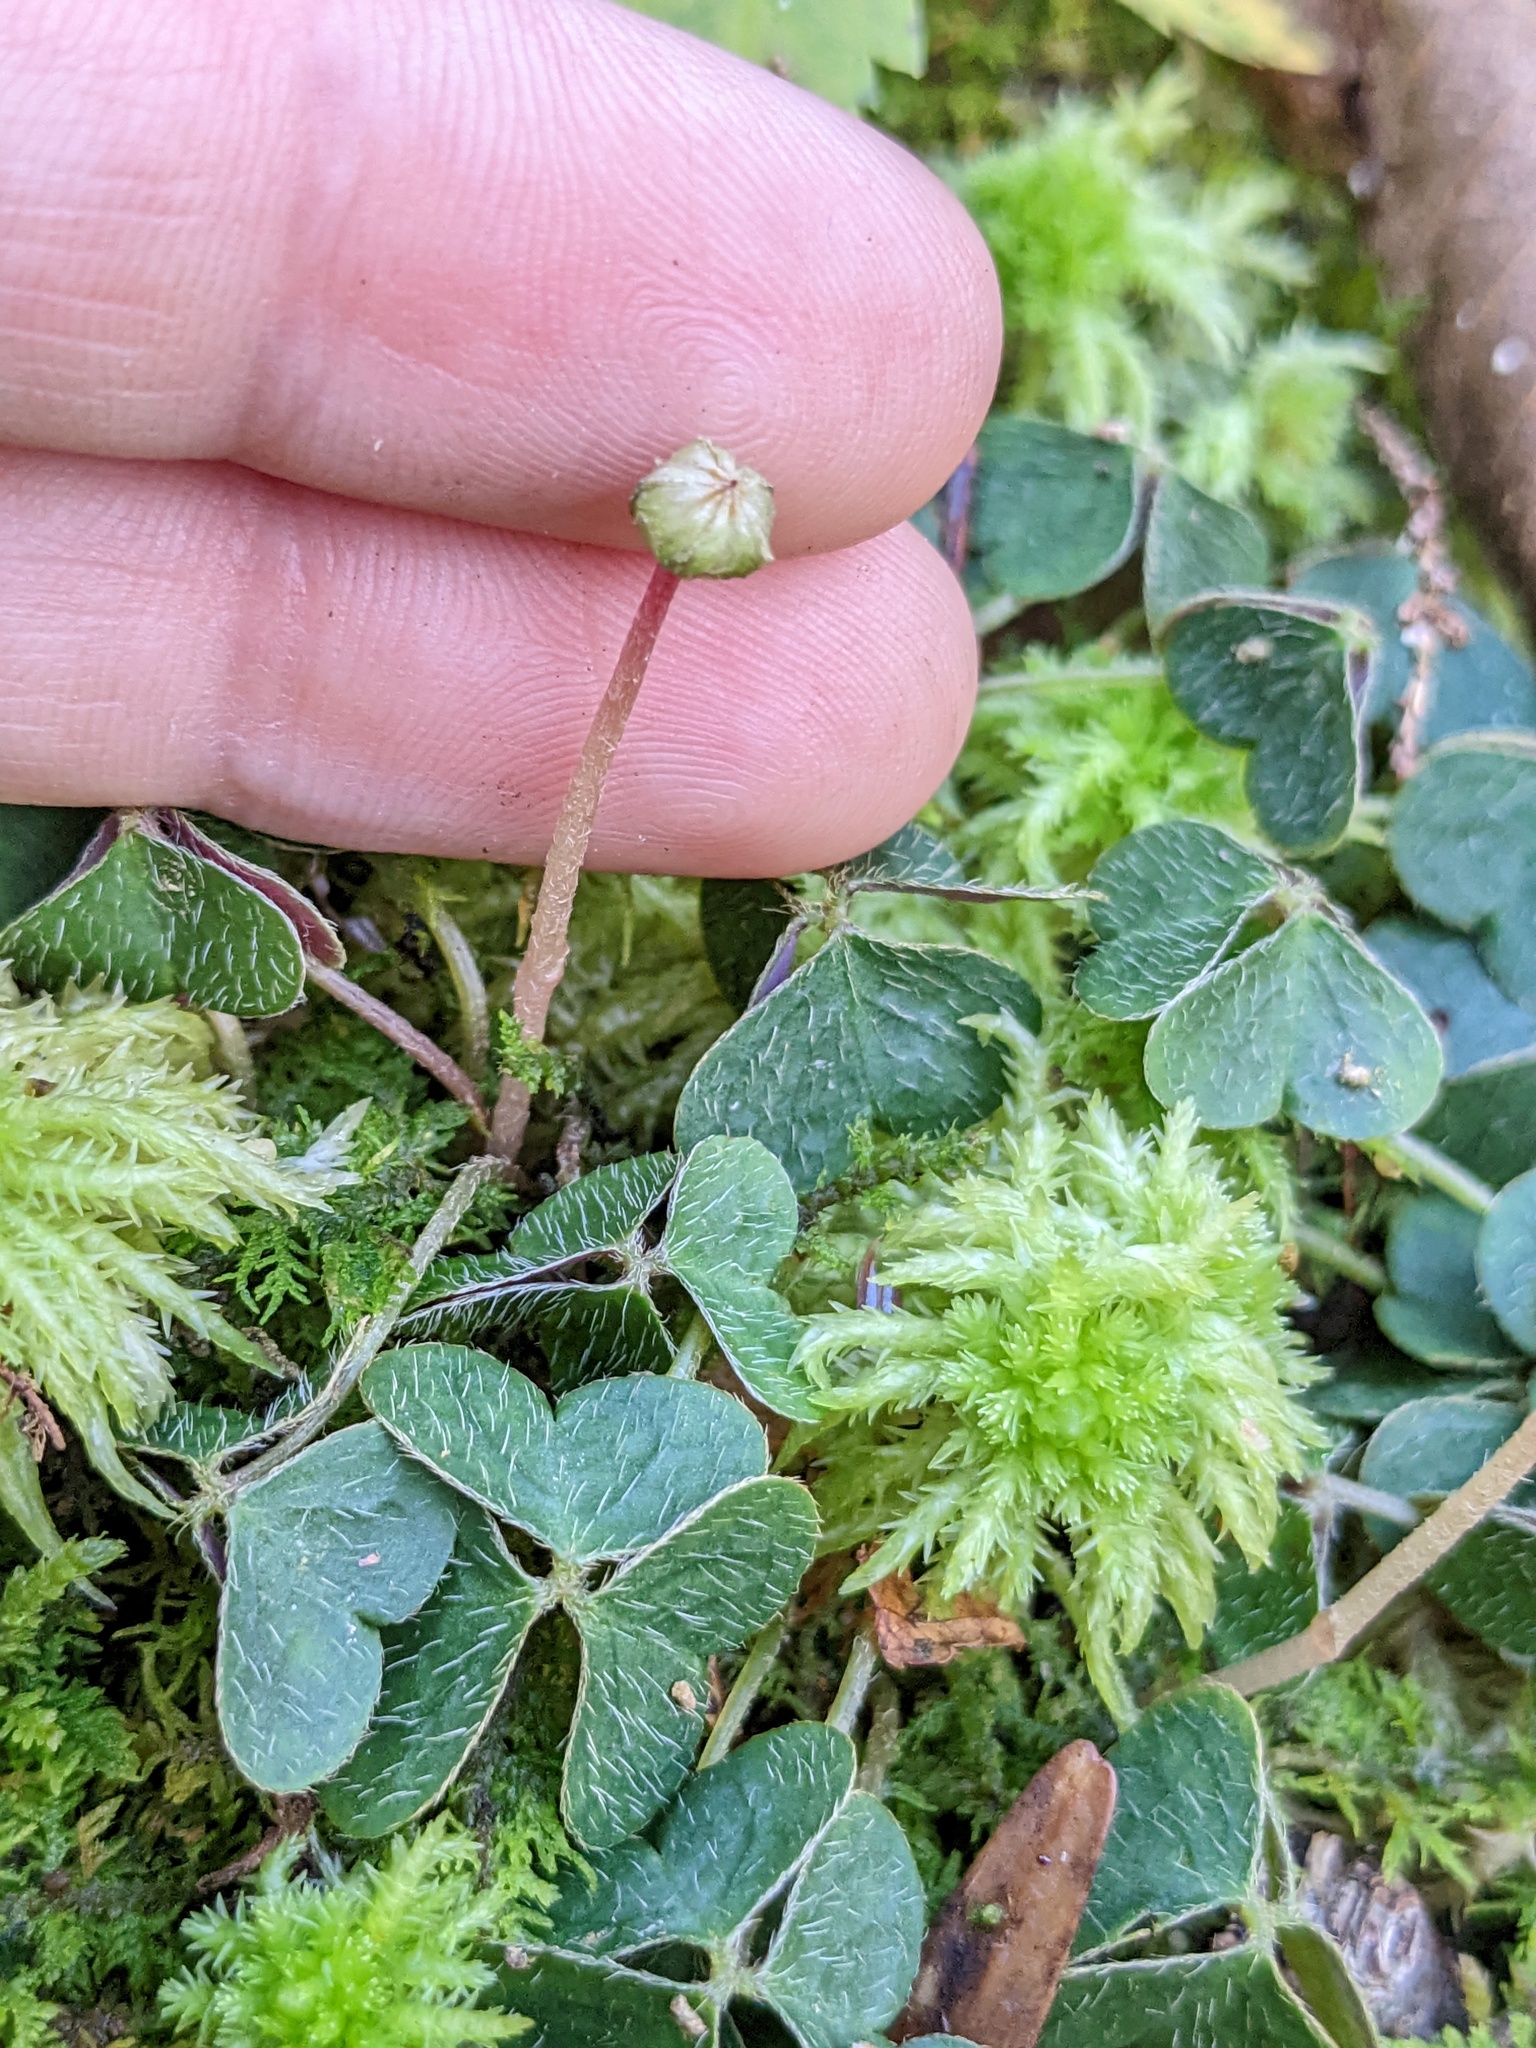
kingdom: Plantae
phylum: Tracheophyta
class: Magnoliopsida
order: Oxalidales
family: Oxalidaceae
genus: Oxalis
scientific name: Oxalis montana
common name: American wood-sorrel
